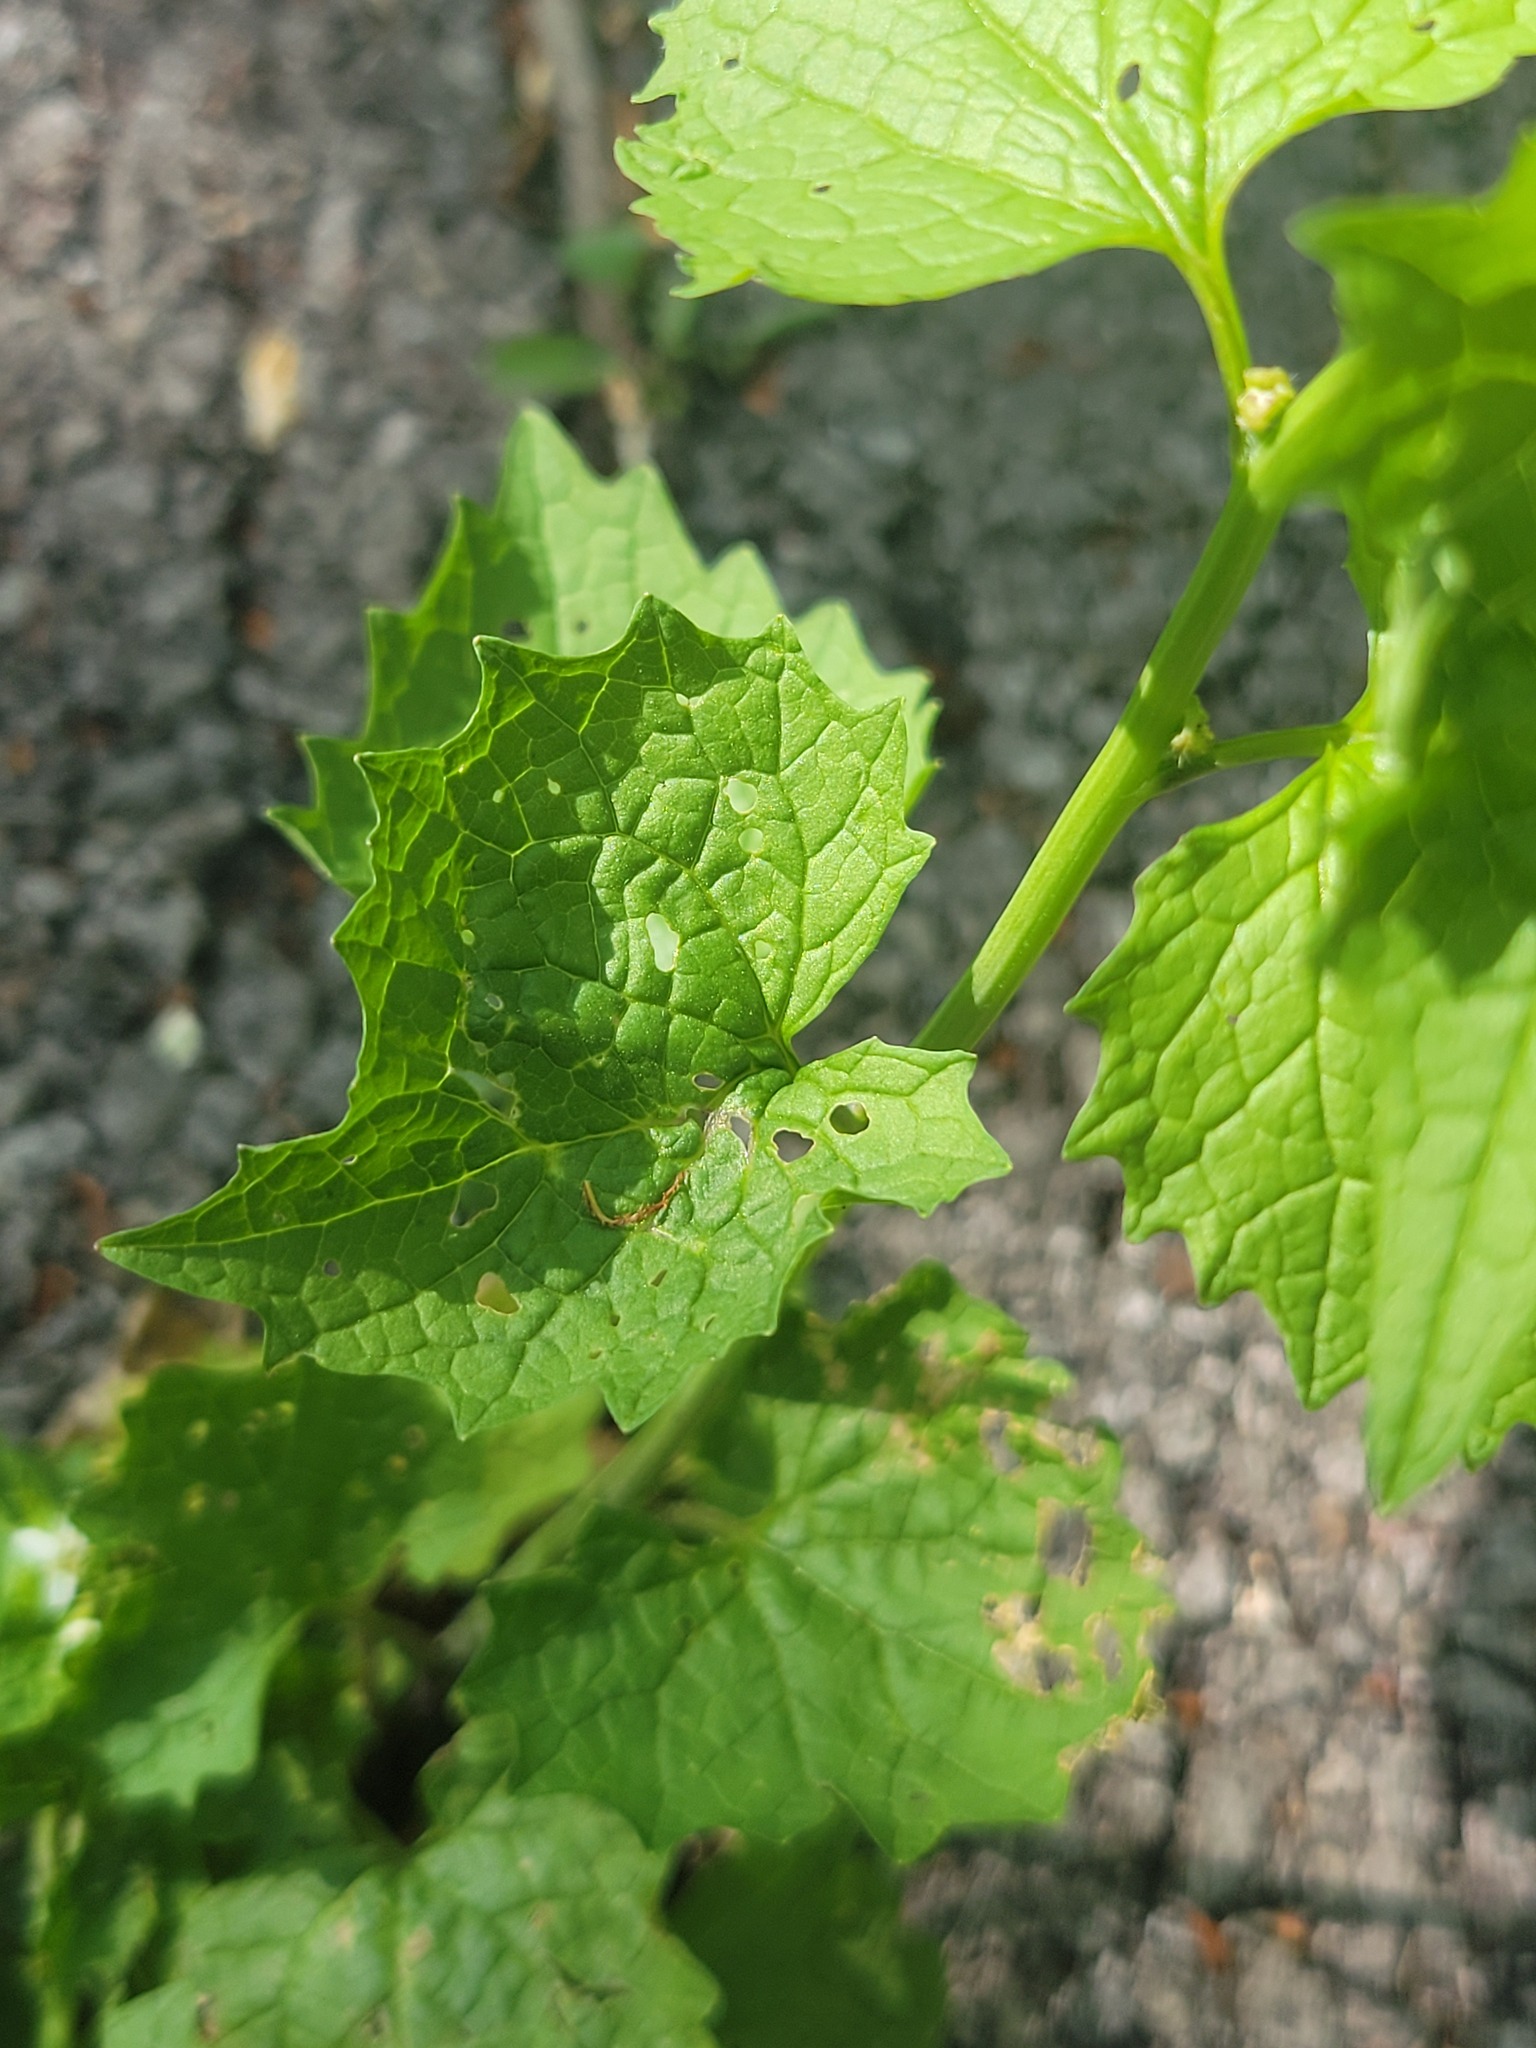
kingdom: Plantae
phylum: Tracheophyta
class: Magnoliopsida
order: Brassicales
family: Brassicaceae
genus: Alliaria
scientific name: Alliaria petiolata
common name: Garlic mustard
